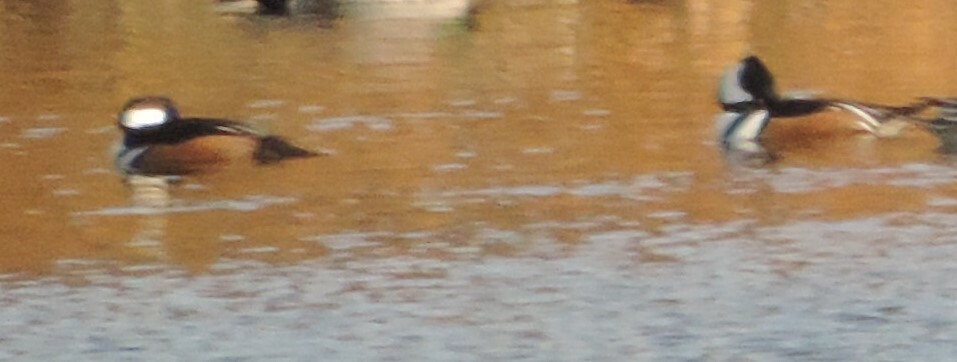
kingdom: Animalia
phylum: Chordata
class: Aves
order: Anseriformes
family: Anatidae
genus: Lophodytes
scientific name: Lophodytes cucullatus
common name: Hooded merganser
